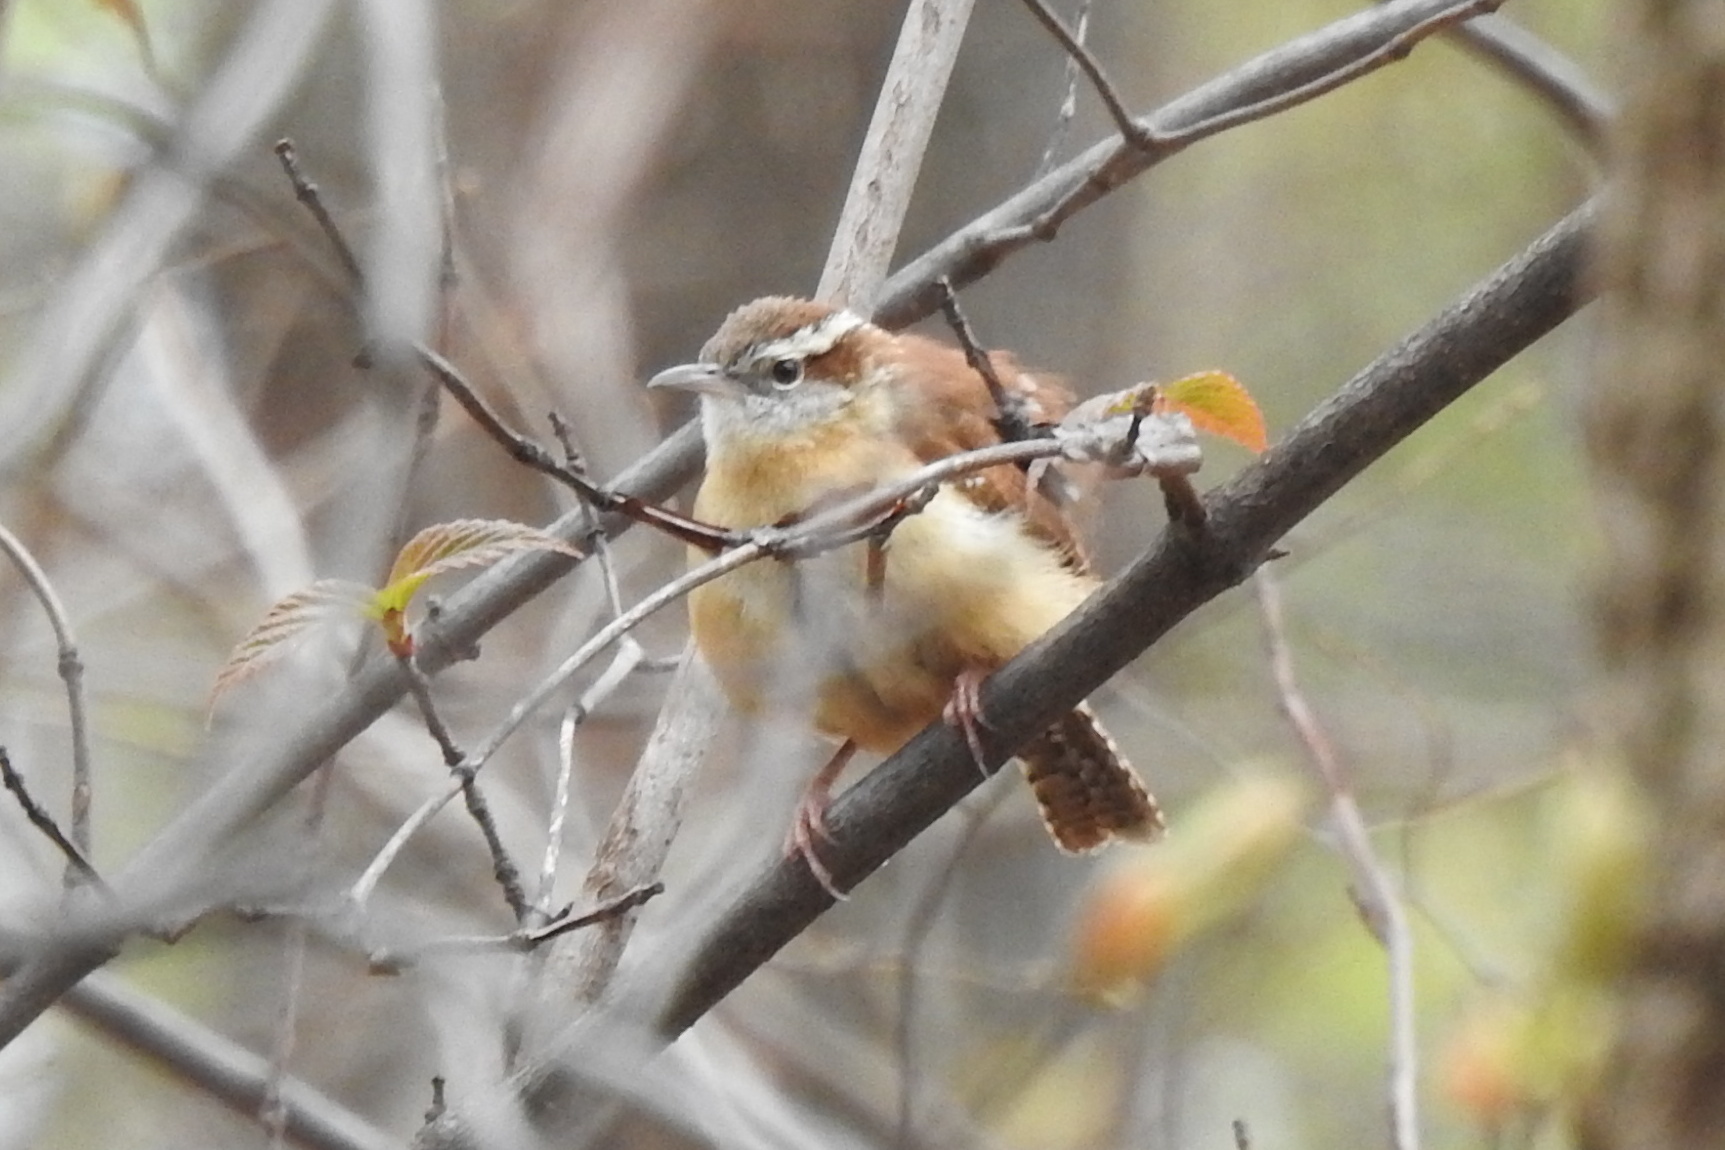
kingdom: Animalia
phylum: Chordata
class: Aves
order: Passeriformes
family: Troglodytidae
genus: Thryothorus
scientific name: Thryothorus ludovicianus
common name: Carolina wren
